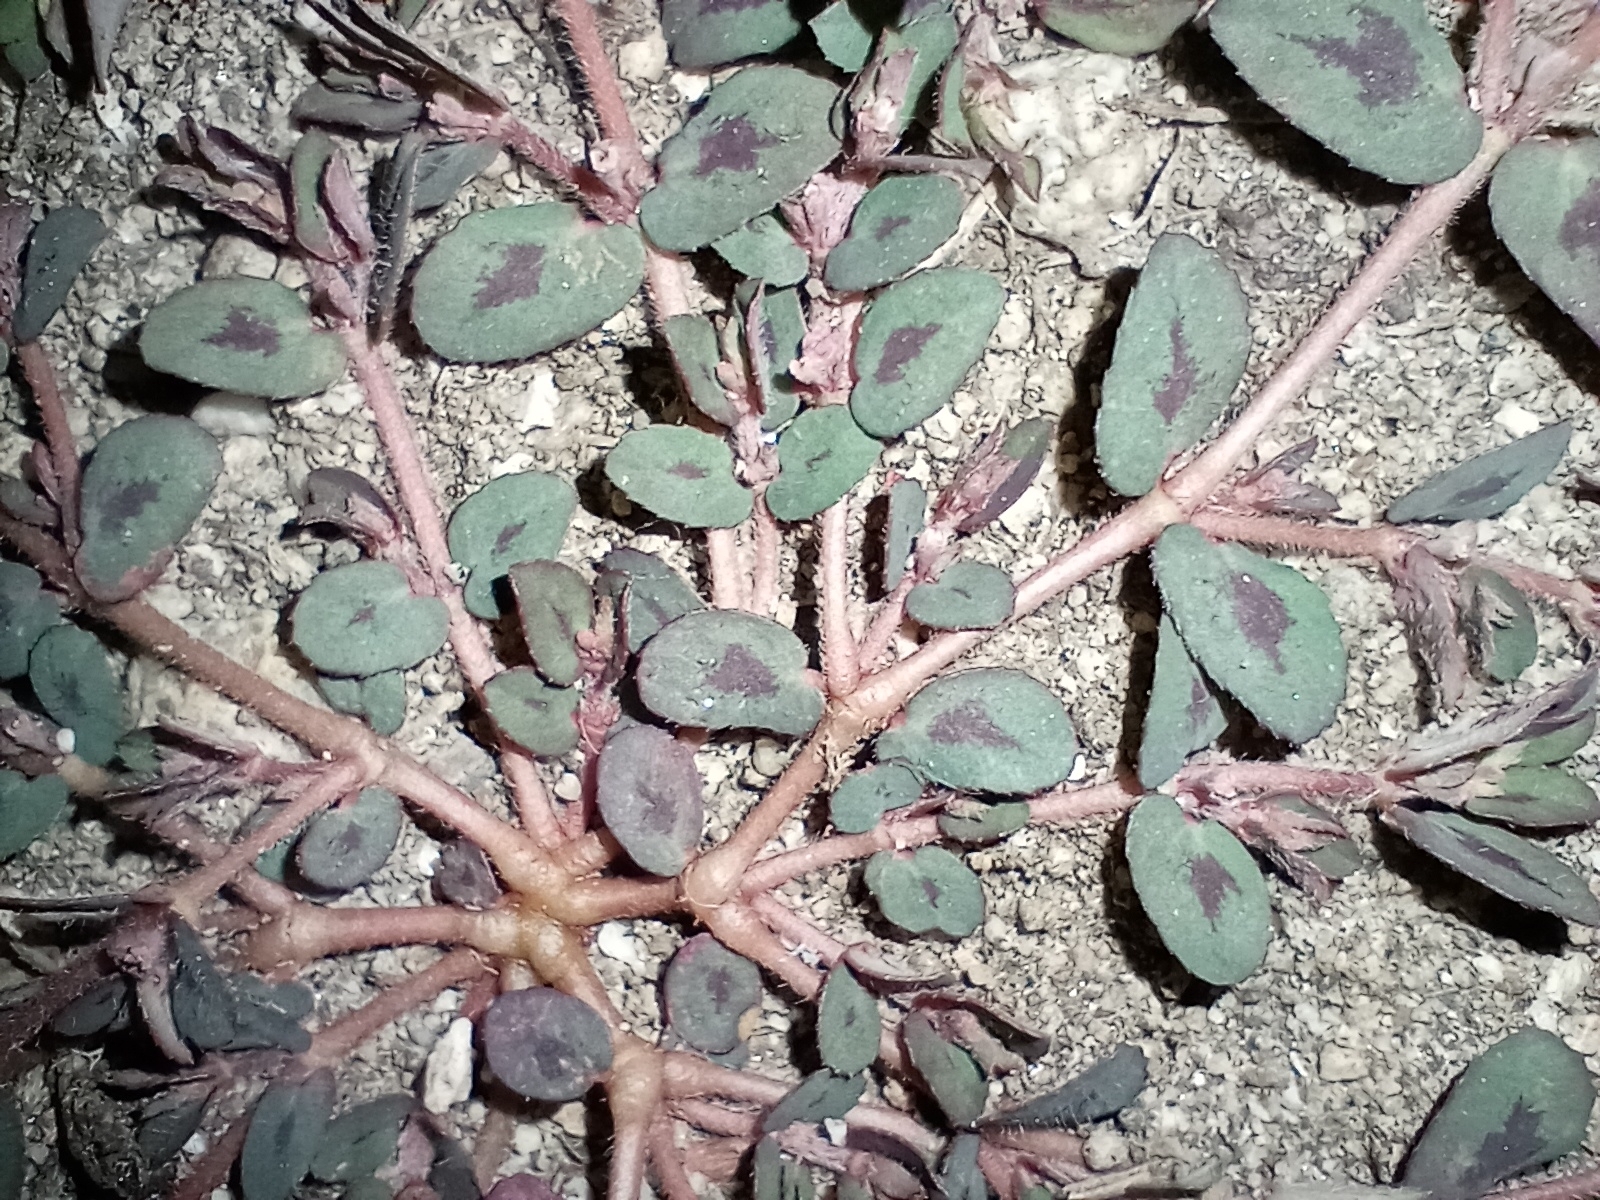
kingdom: Plantae
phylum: Tracheophyta
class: Magnoliopsida
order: Malpighiales
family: Euphorbiaceae
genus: Euphorbia
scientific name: Euphorbia maculata
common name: Spotted spurge
